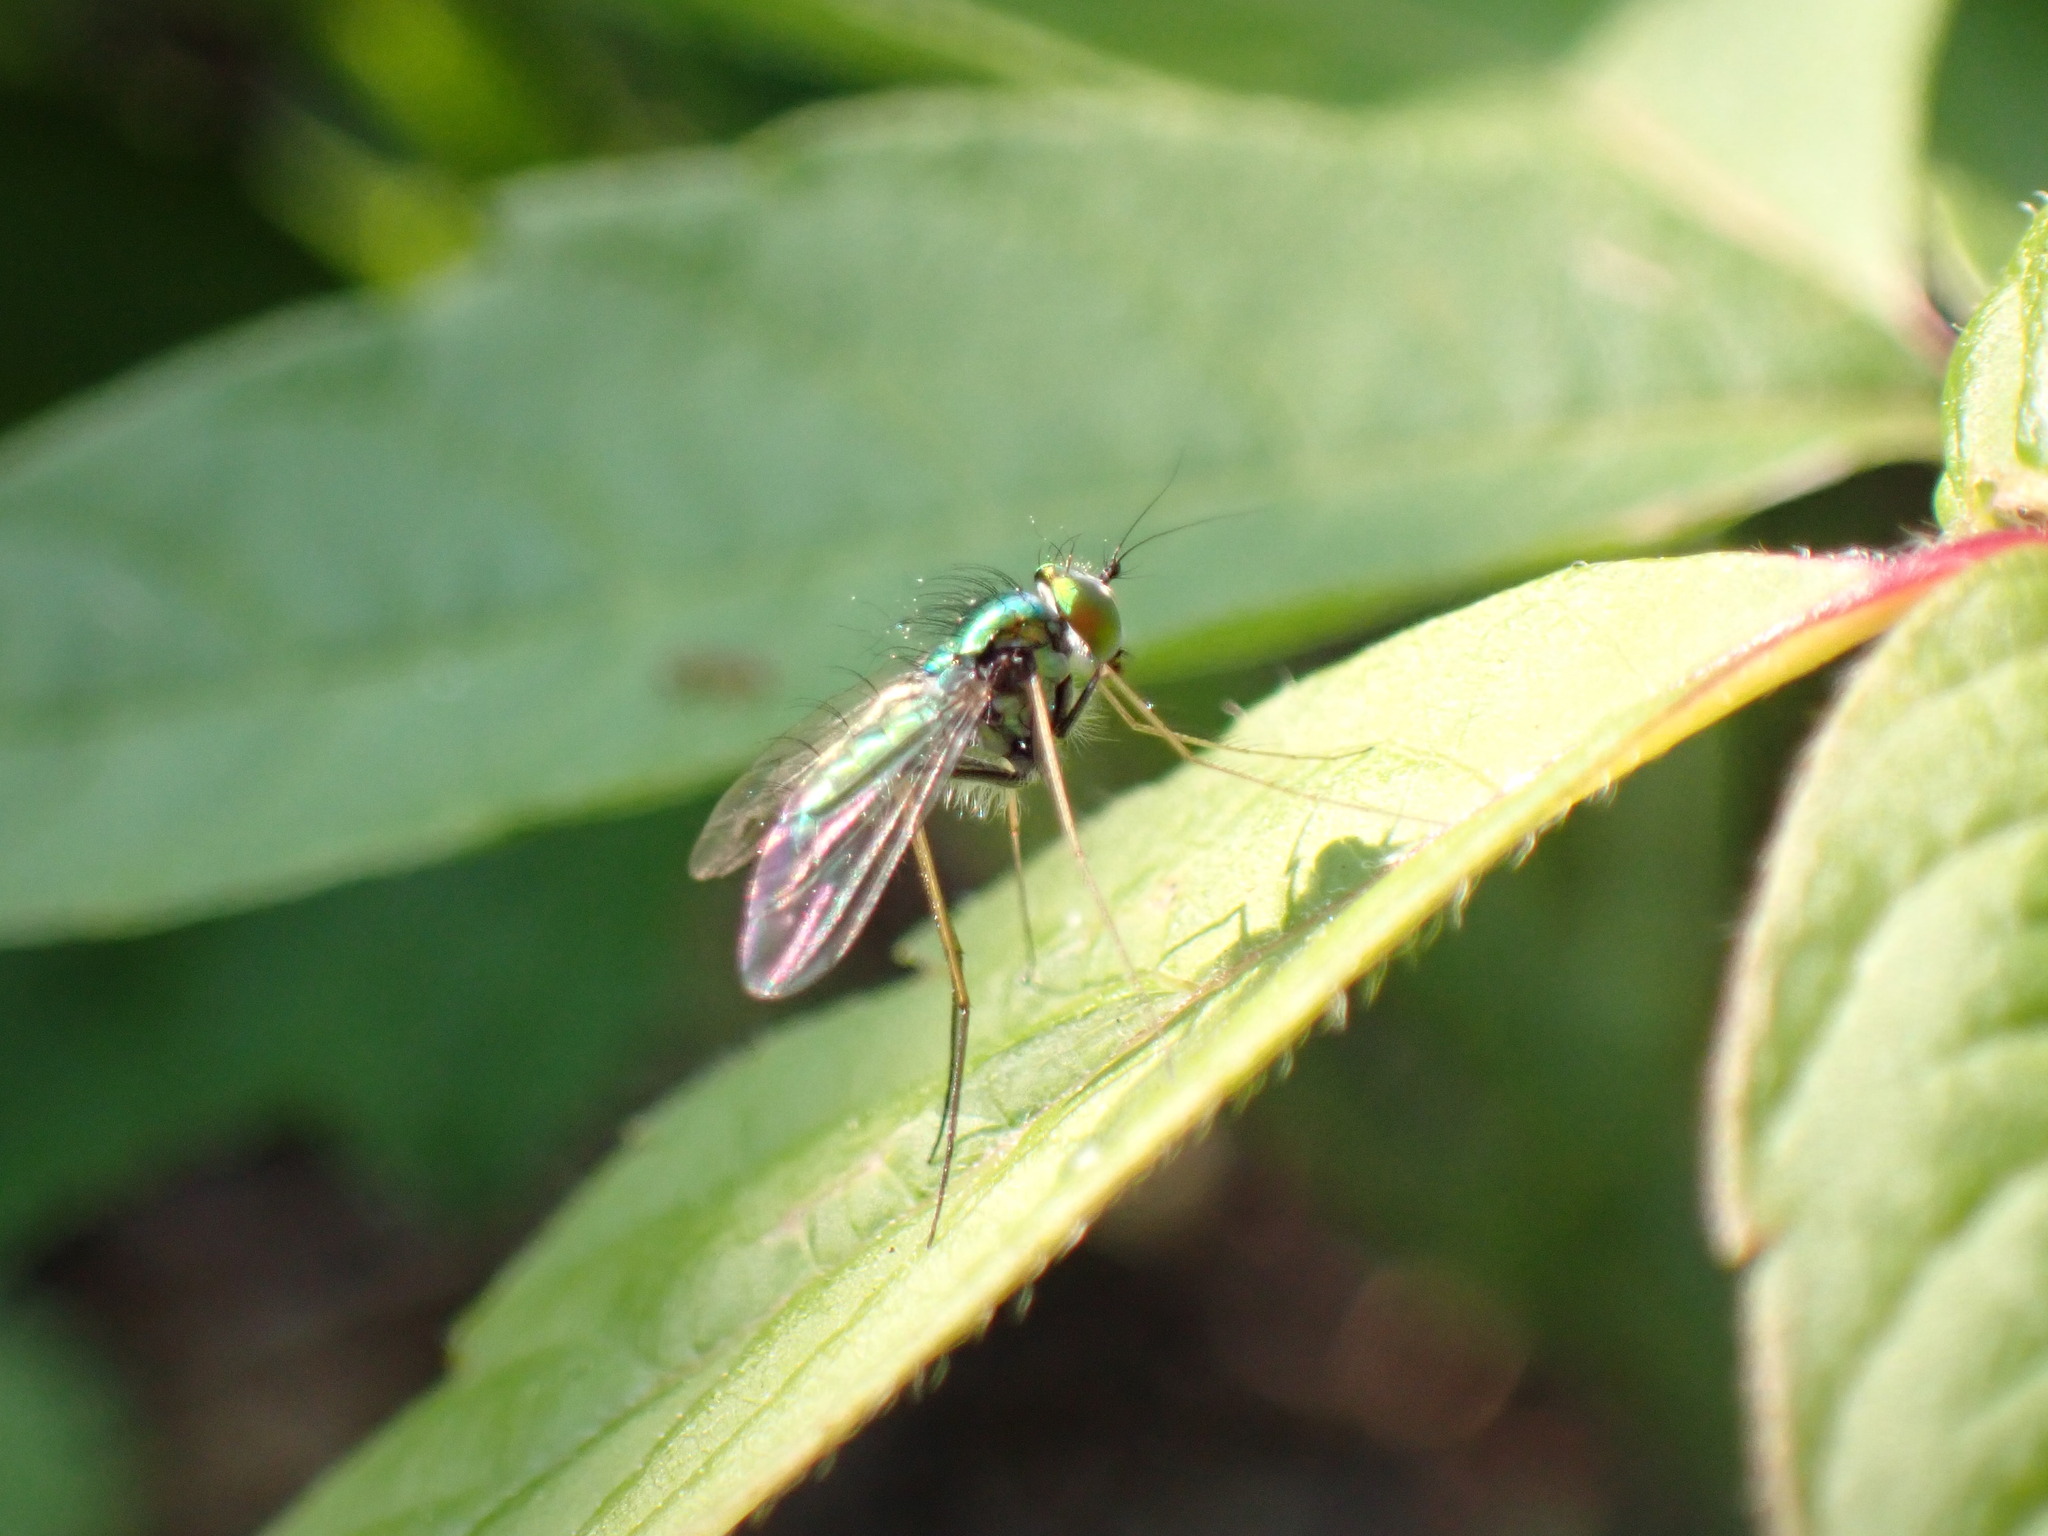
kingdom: Animalia
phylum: Arthropoda
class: Insecta
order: Diptera
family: Dolichopodidae
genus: Condylostylus
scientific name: Condylostylus comatus
